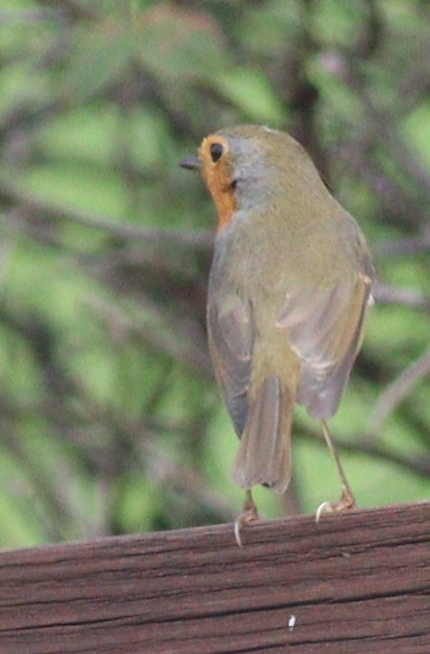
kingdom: Animalia
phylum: Chordata
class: Aves
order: Passeriformes
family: Muscicapidae
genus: Erithacus
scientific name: Erithacus rubecula
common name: European robin
